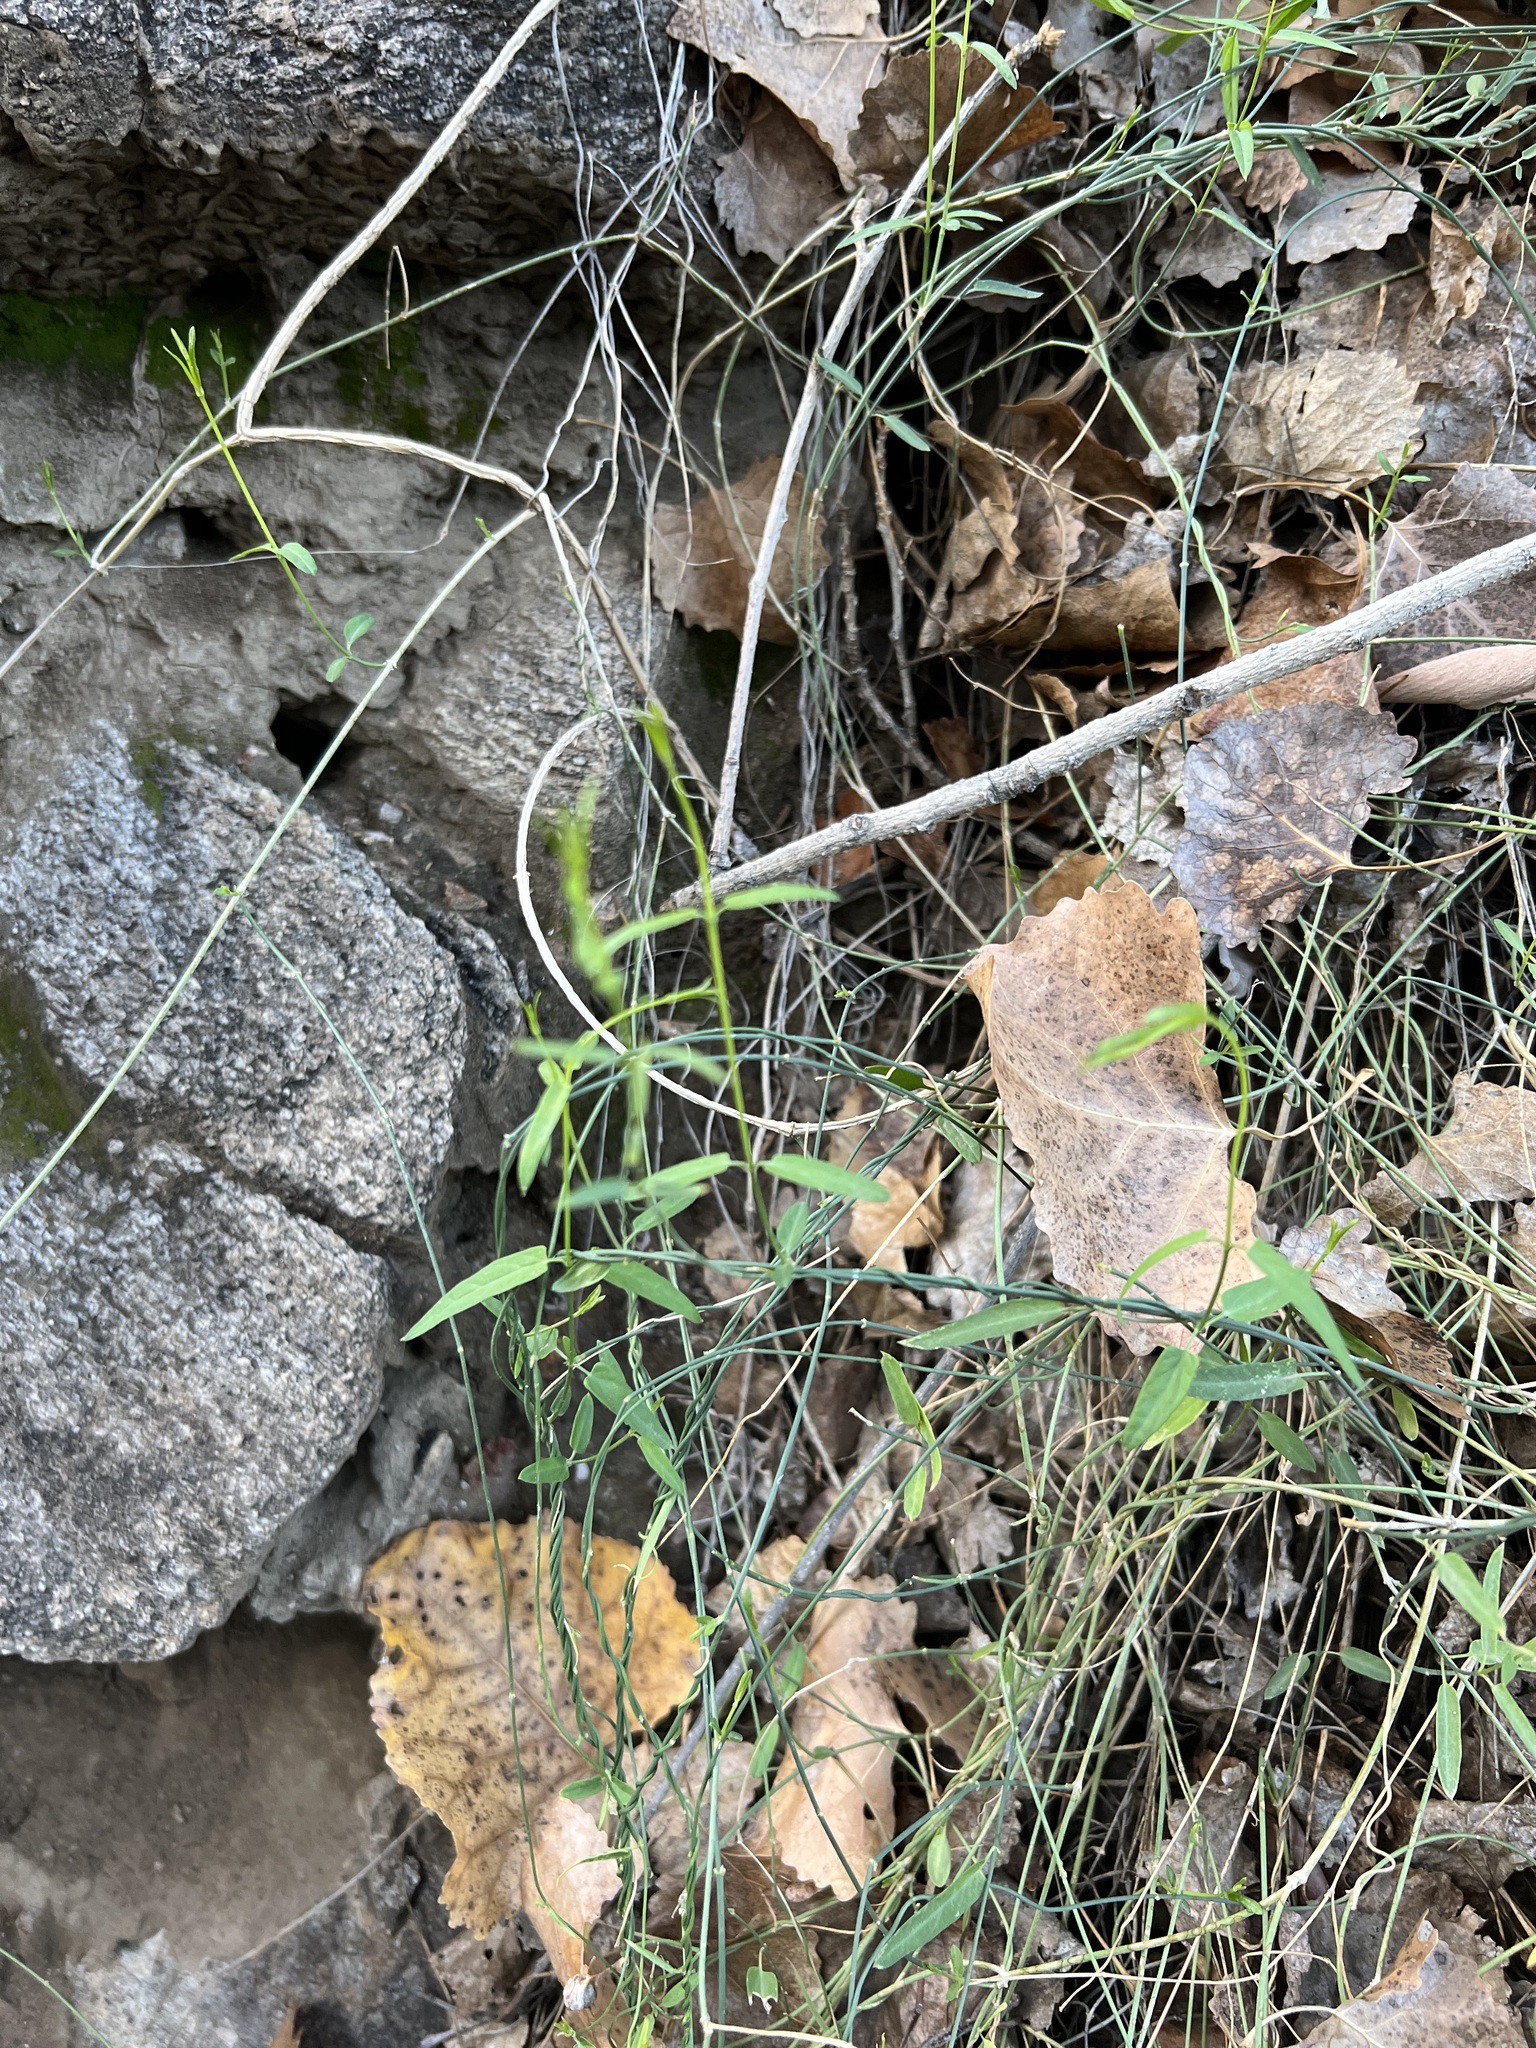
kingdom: Plantae
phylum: Tracheophyta
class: Magnoliopsida
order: Gentianales
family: Apocynaceae
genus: Funastrum
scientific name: Funastrum heterophyllum
